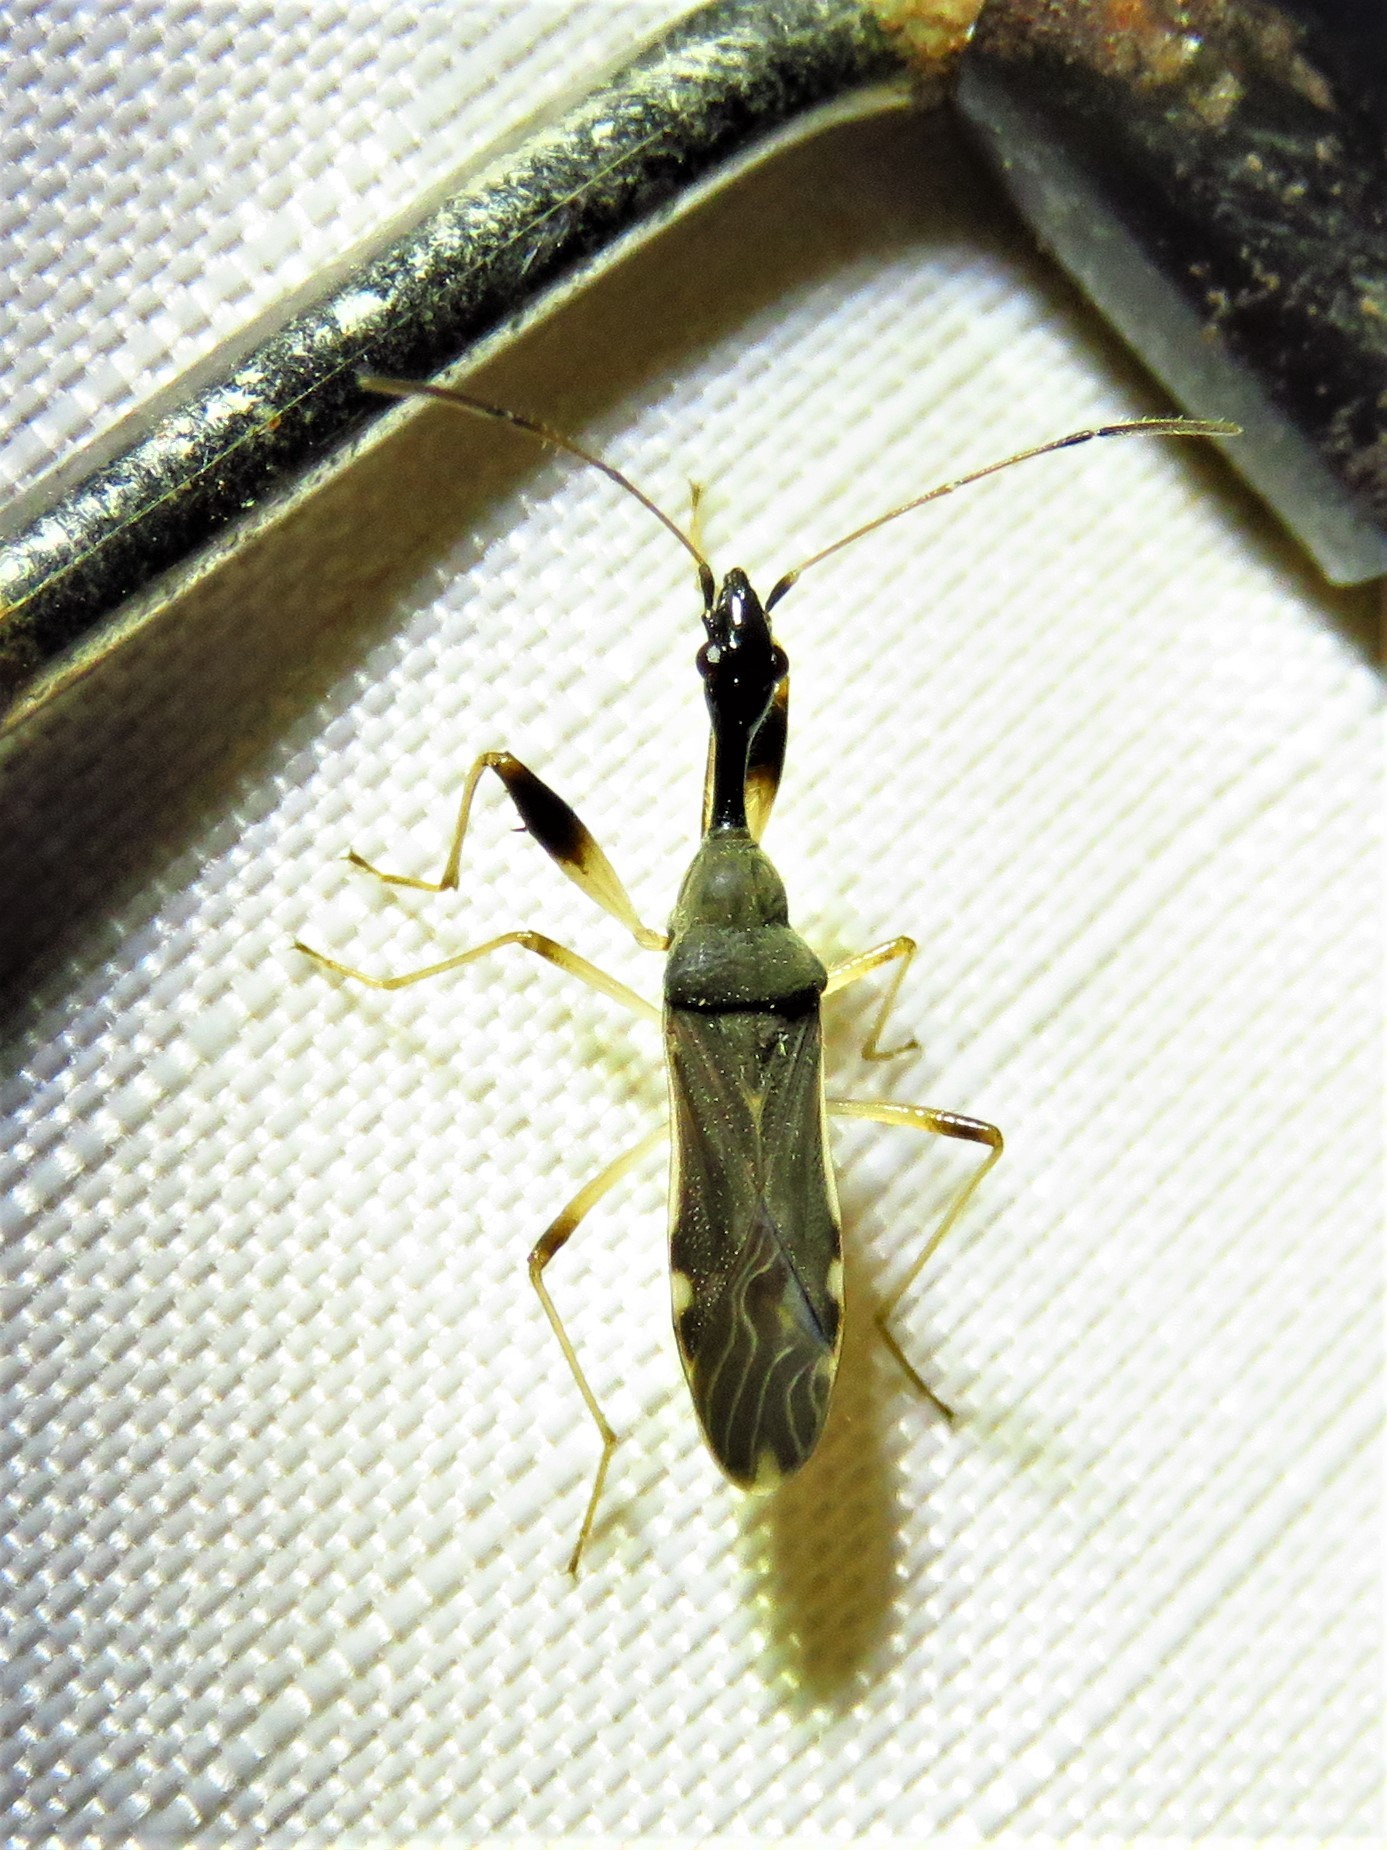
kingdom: Animalia
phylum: Arthropoda
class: Insecta
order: Hemiptera
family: Rhyparochromidae
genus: Myodocha
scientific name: Myodocha serripes
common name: Long-necked seed bug
